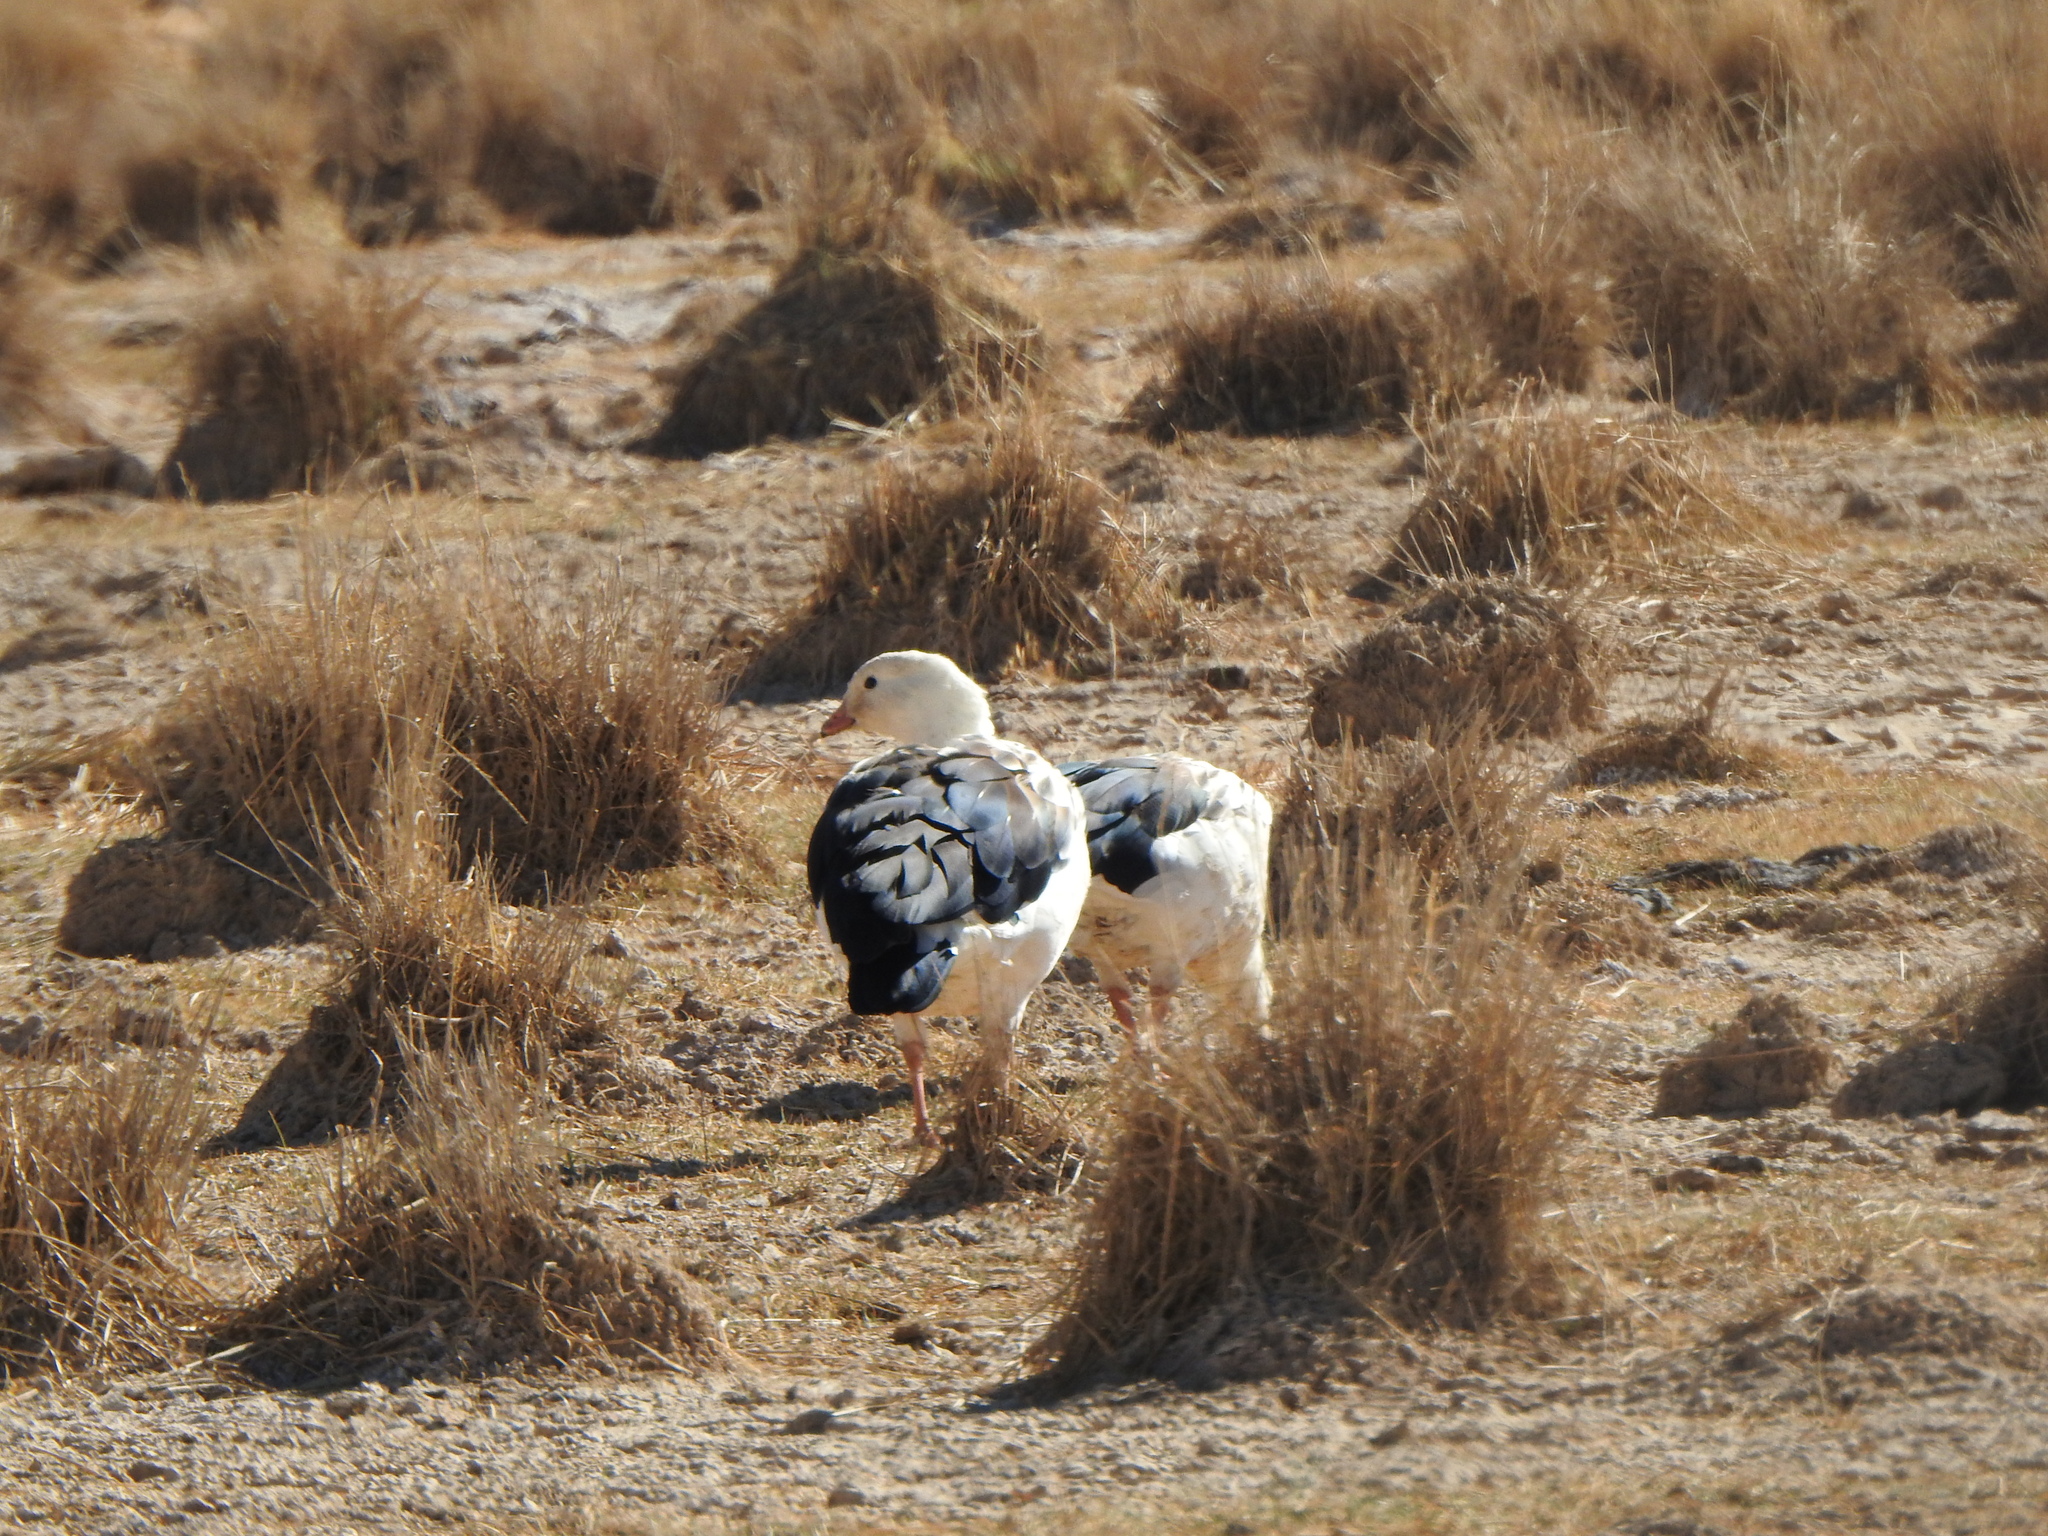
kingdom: Animalia
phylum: Chordata
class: Aves
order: Anseriformes
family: Anatidae
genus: Chloephaga
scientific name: Chloephaga melanoptera
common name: Andean goose
